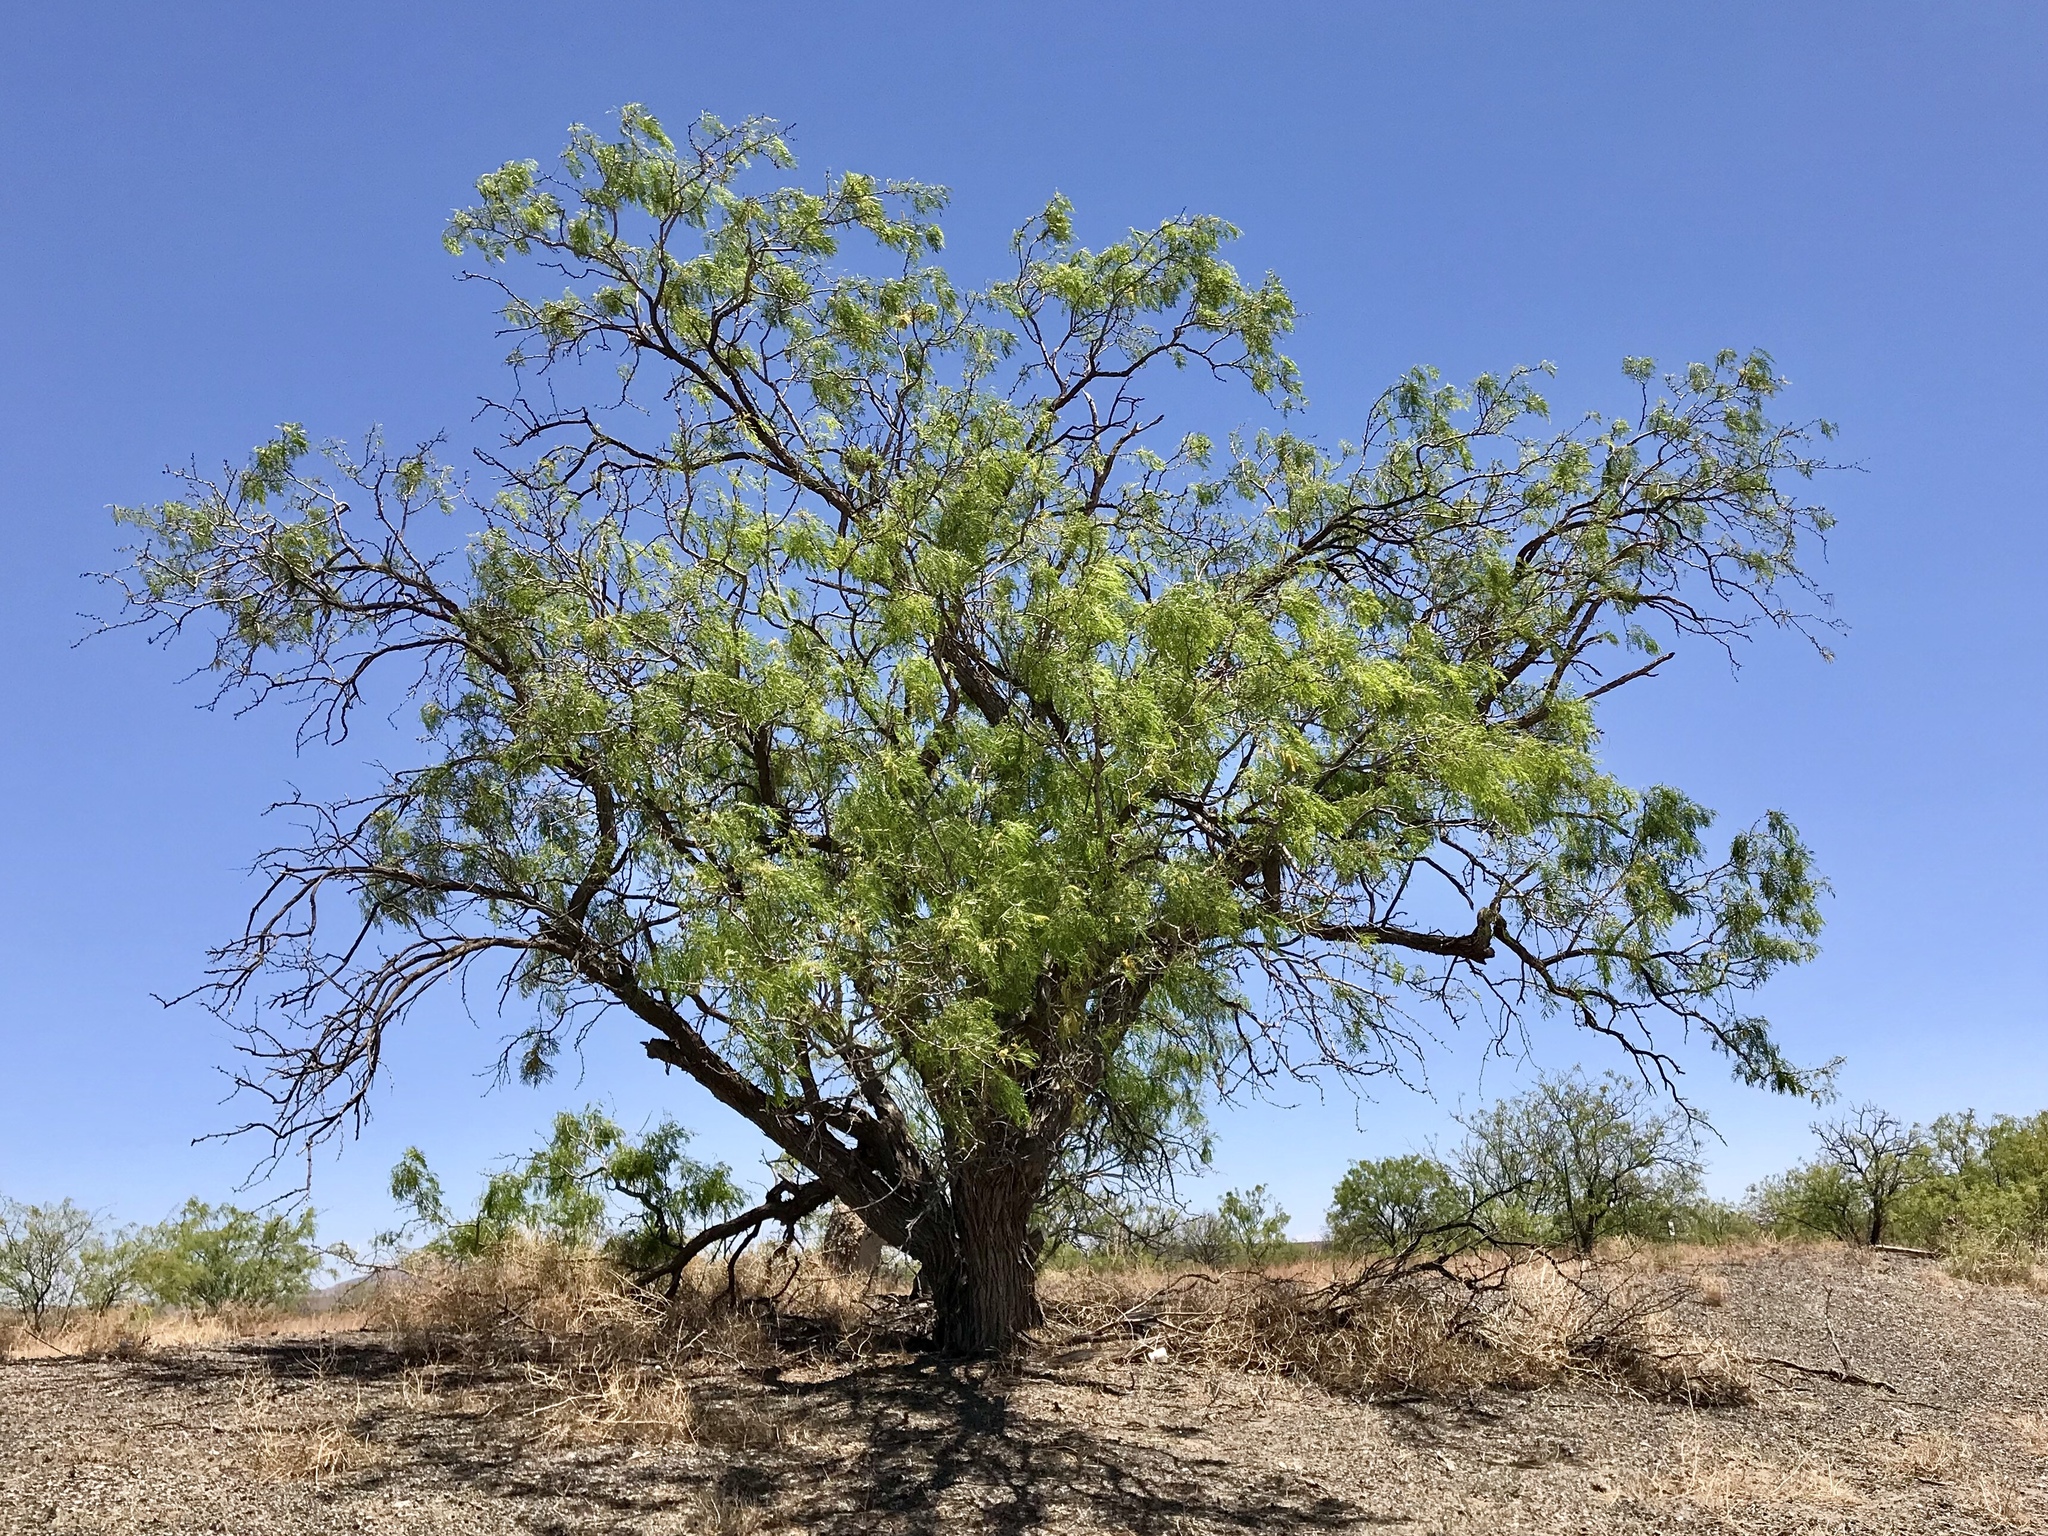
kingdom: Plantae
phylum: Tracheophyta
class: Magnoliopsida
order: Fabales
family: Fabaceae
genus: Prosopis
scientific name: Prosopis glandulosa
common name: Honey mesquite
